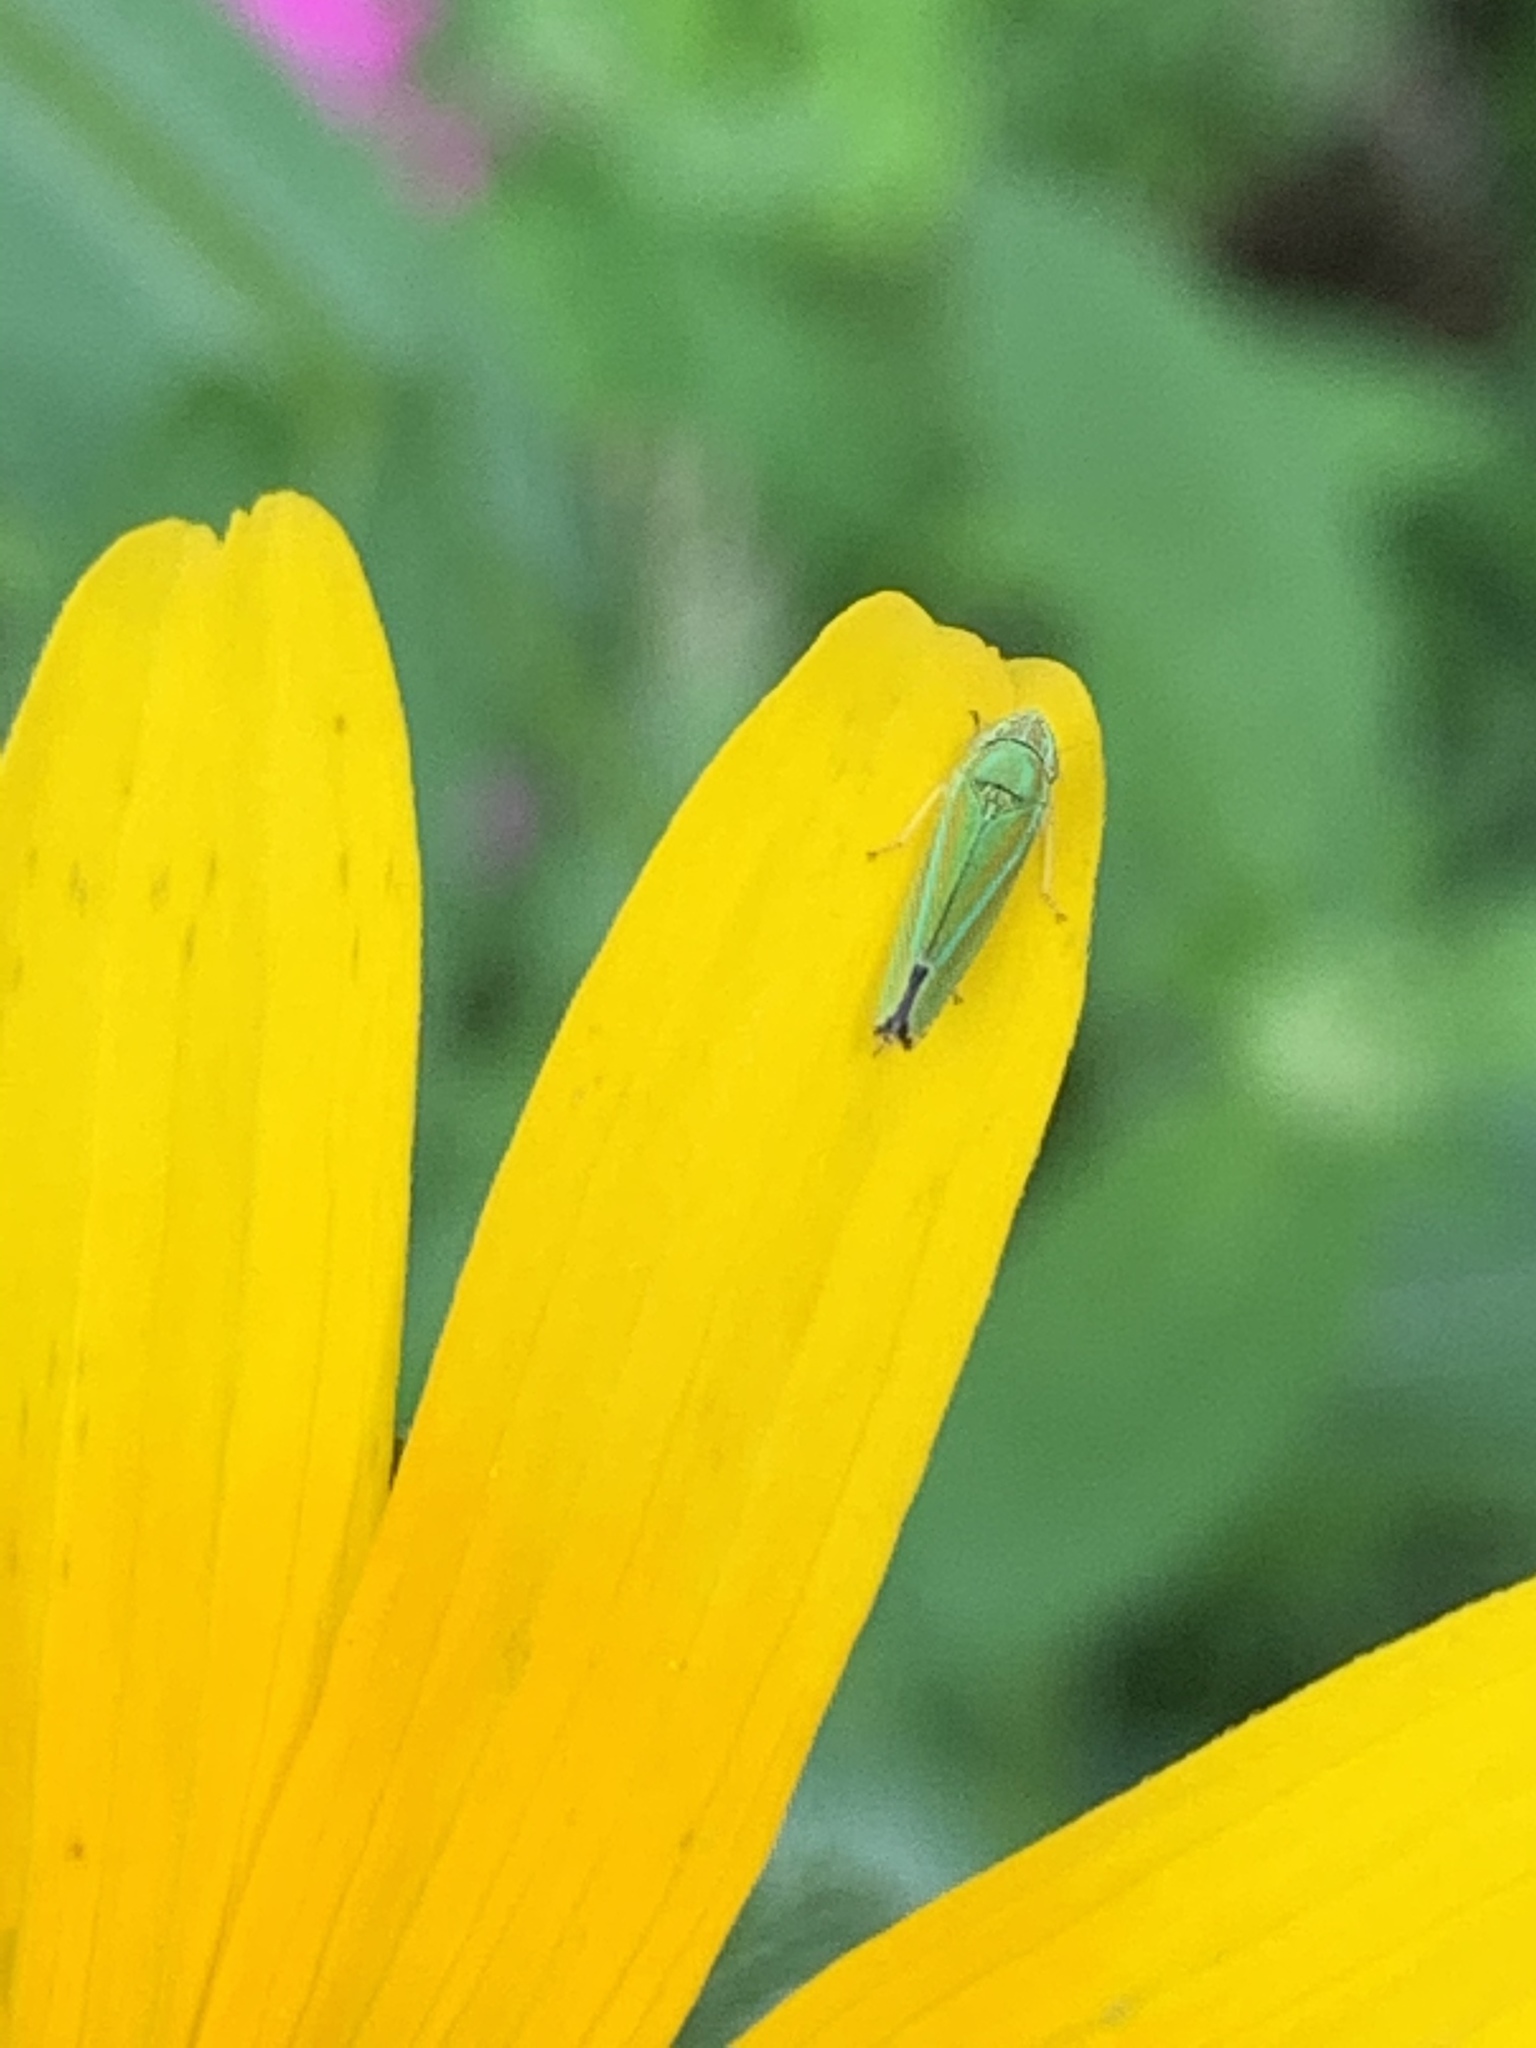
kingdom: Animalia
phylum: Arthropoda
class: Insecta
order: Hemiptera
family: Cicadellidae
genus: Graphocephala
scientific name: Graphocephala versuta
